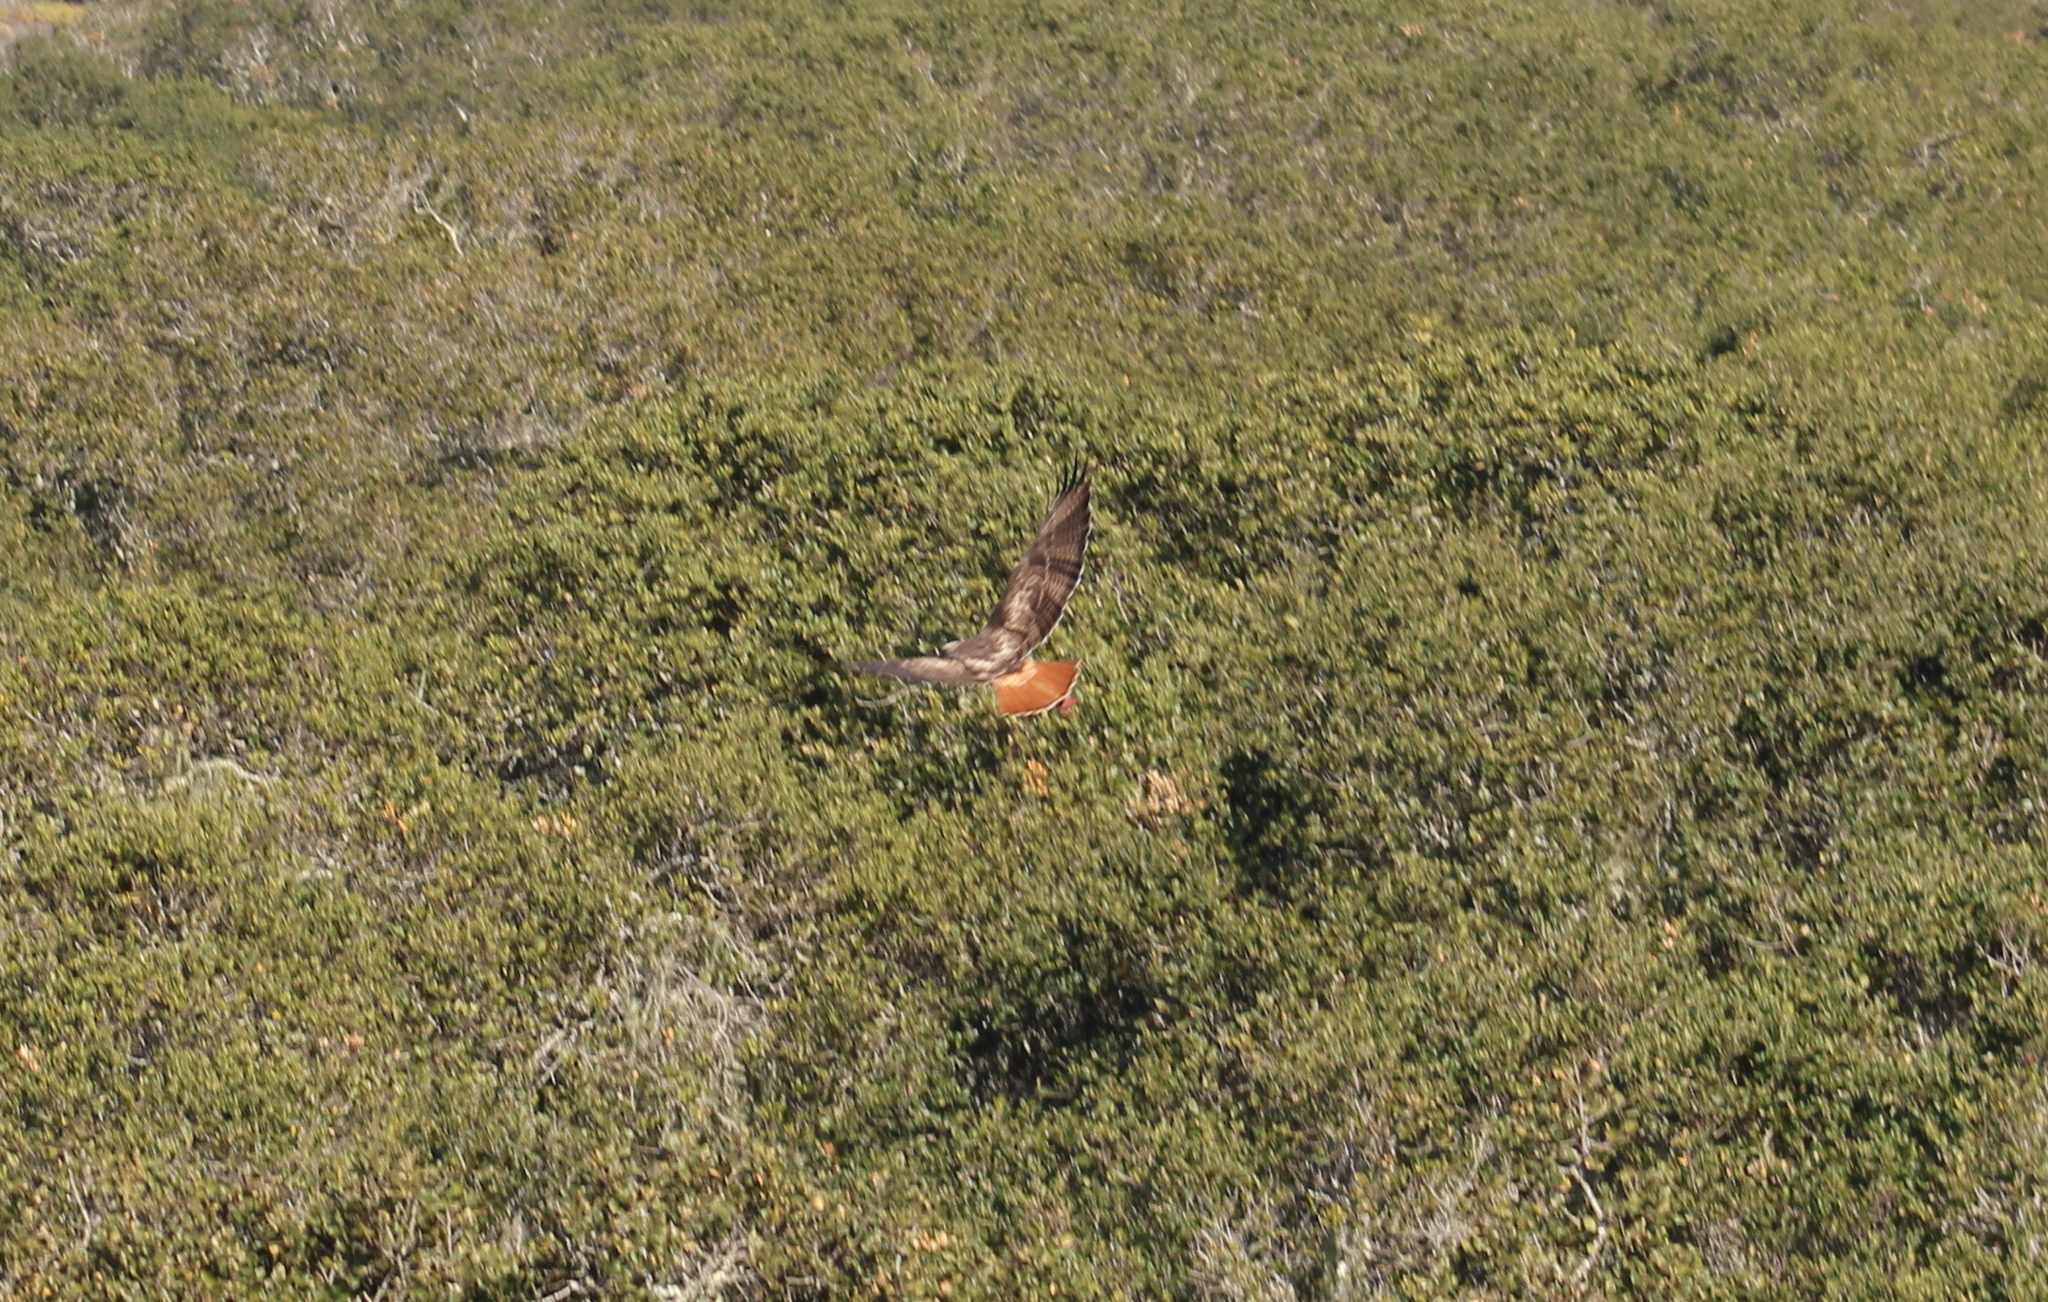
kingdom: Animalia
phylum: Chordata
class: Aves
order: Accipitriformes
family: Accipitridae
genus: Buteo
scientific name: Buteo jamaicensis
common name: Red-tailed hawk
